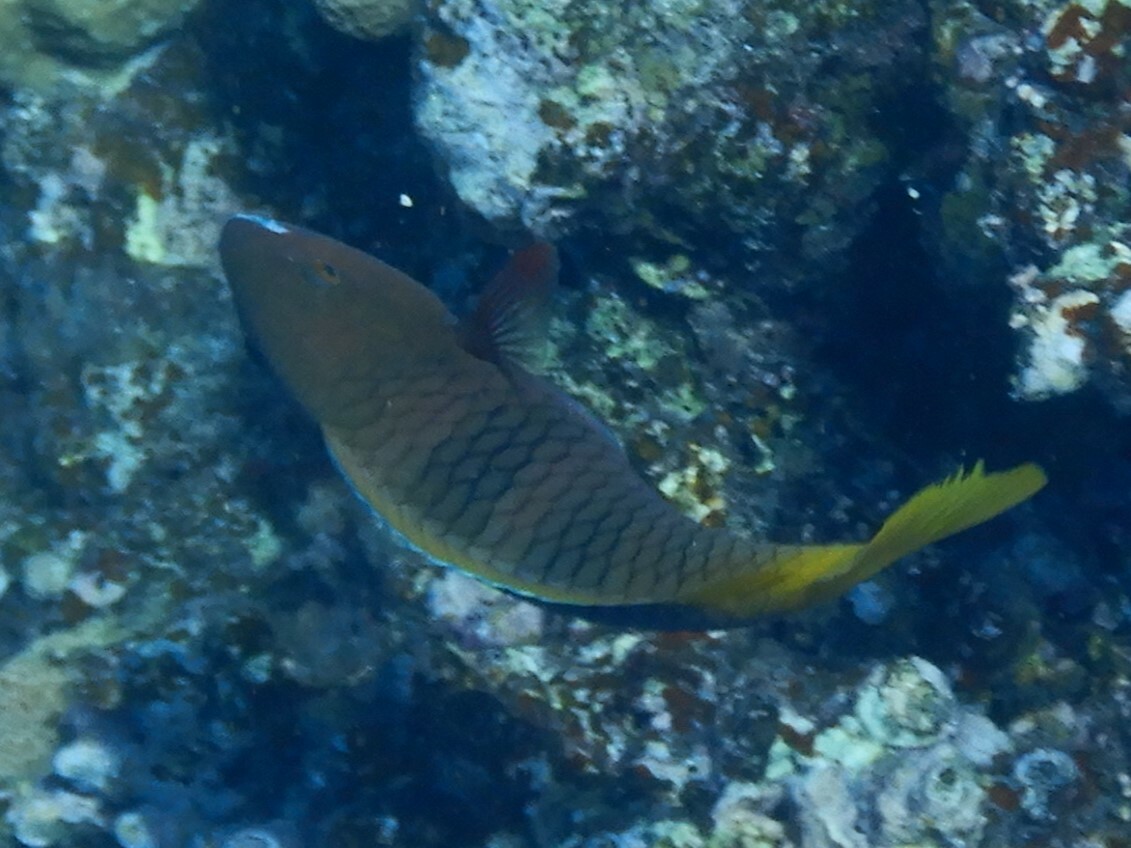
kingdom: Animalia
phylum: Chordata
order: Perciformes
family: Scaridae
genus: Scarus
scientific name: Scarus ferrugineus
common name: Rusty parrotfish
